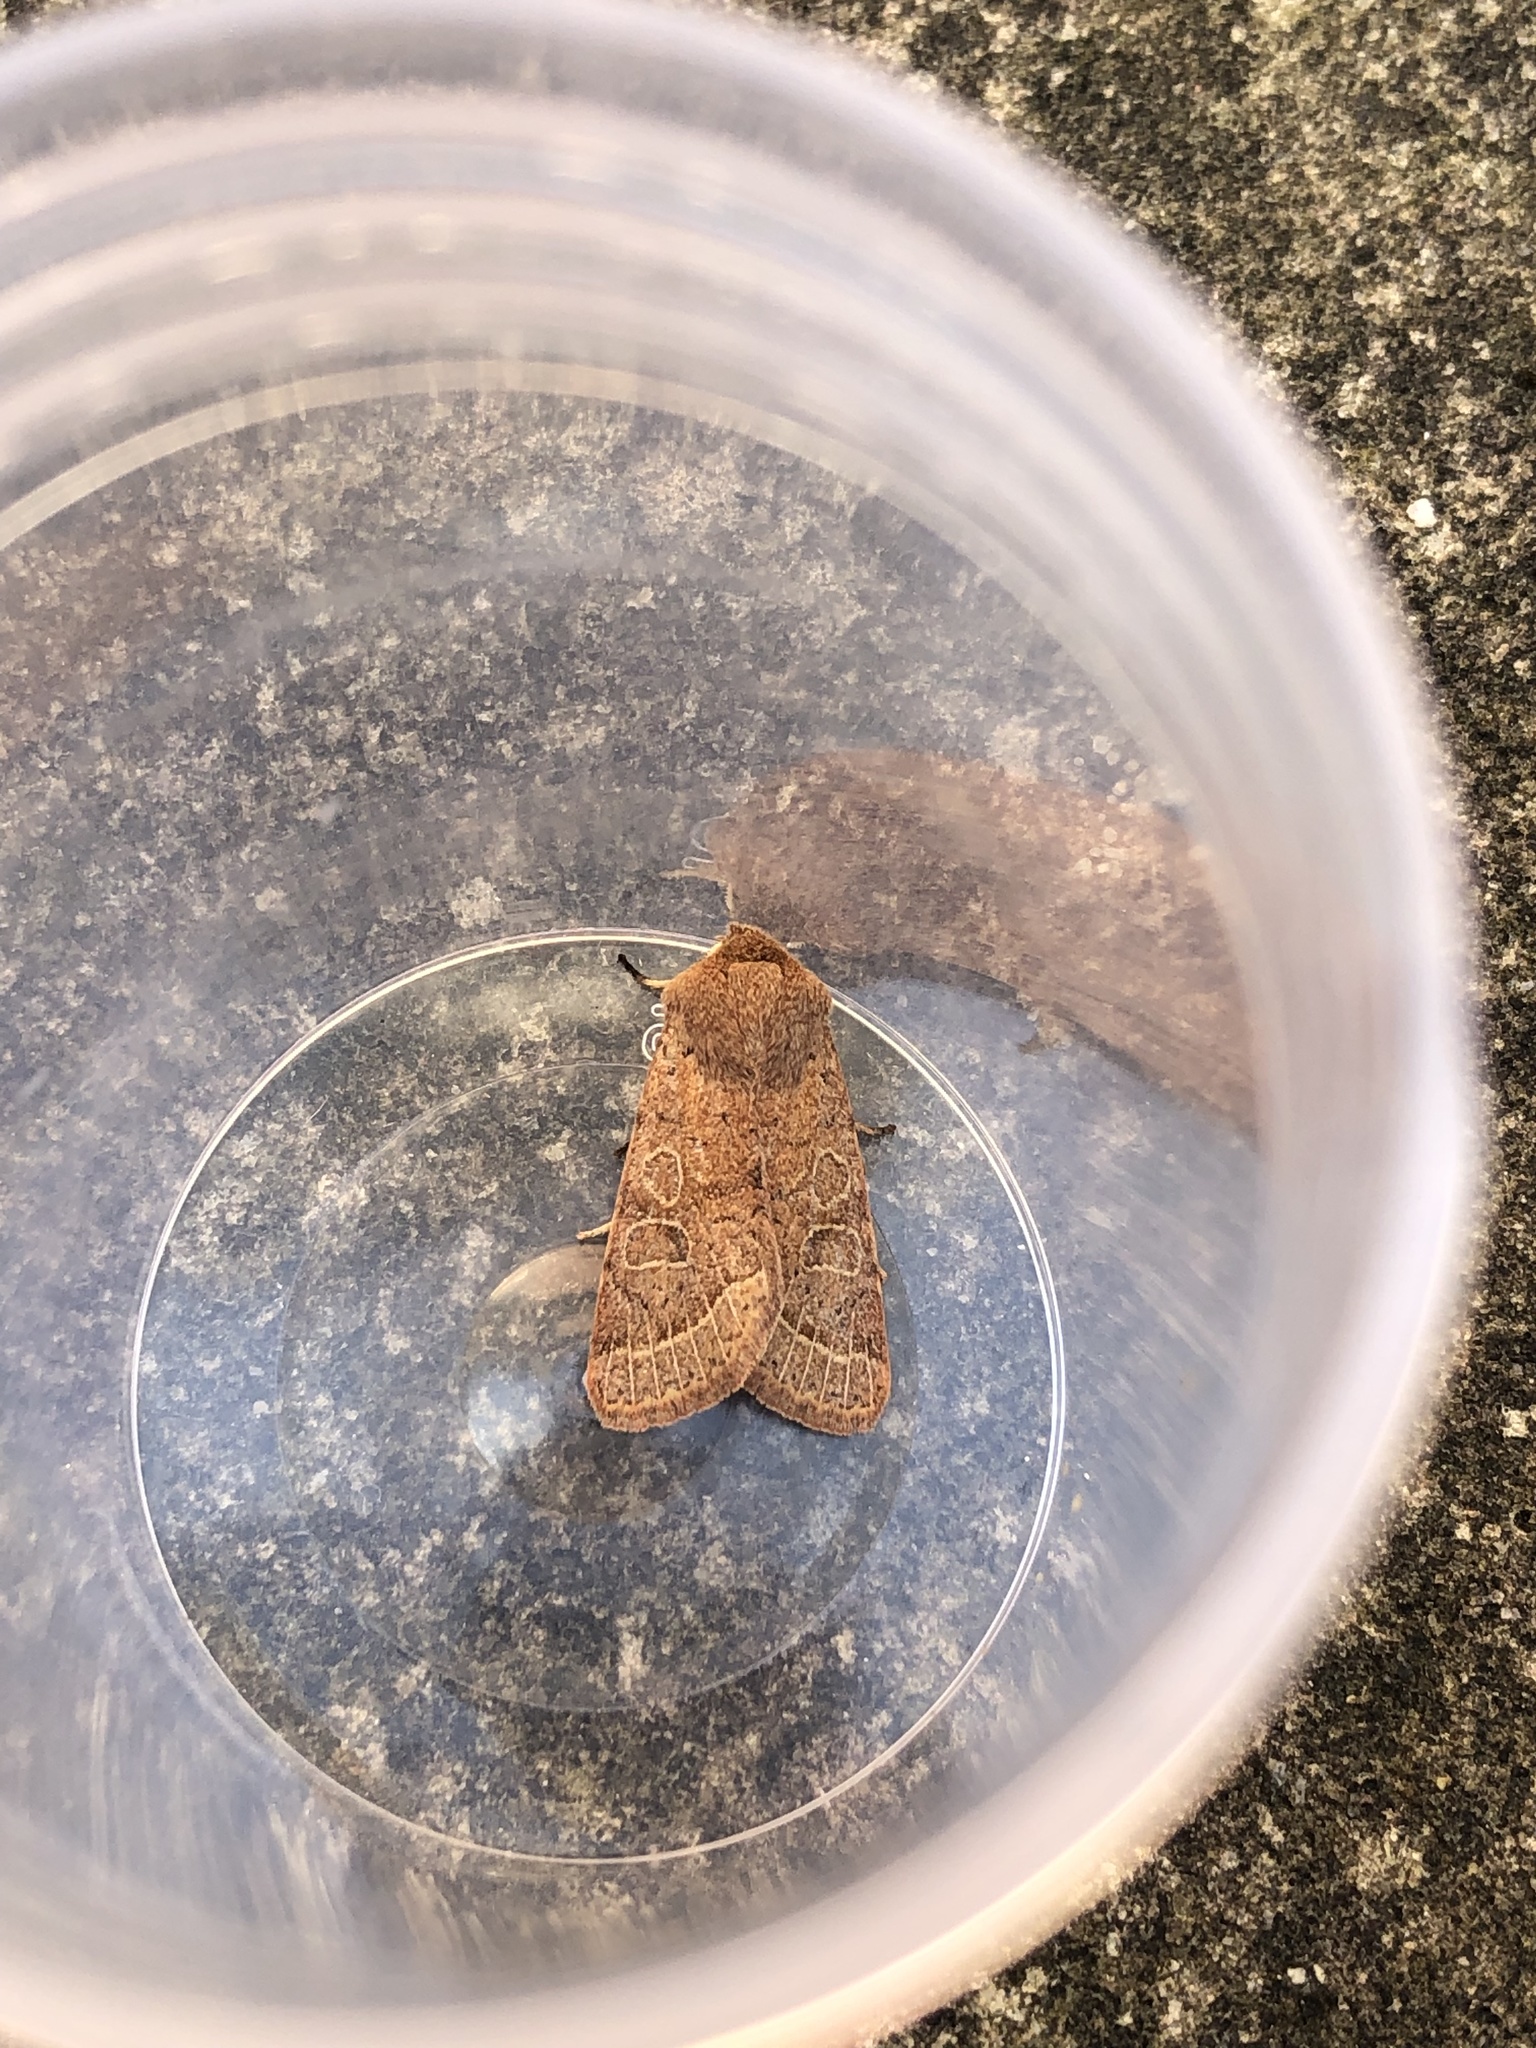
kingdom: Animalia
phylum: Arthropoda
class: Insecta
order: Lepidoptera
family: Noctuidae
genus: Orthosia
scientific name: Orthosia cerasi
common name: Common quaker
